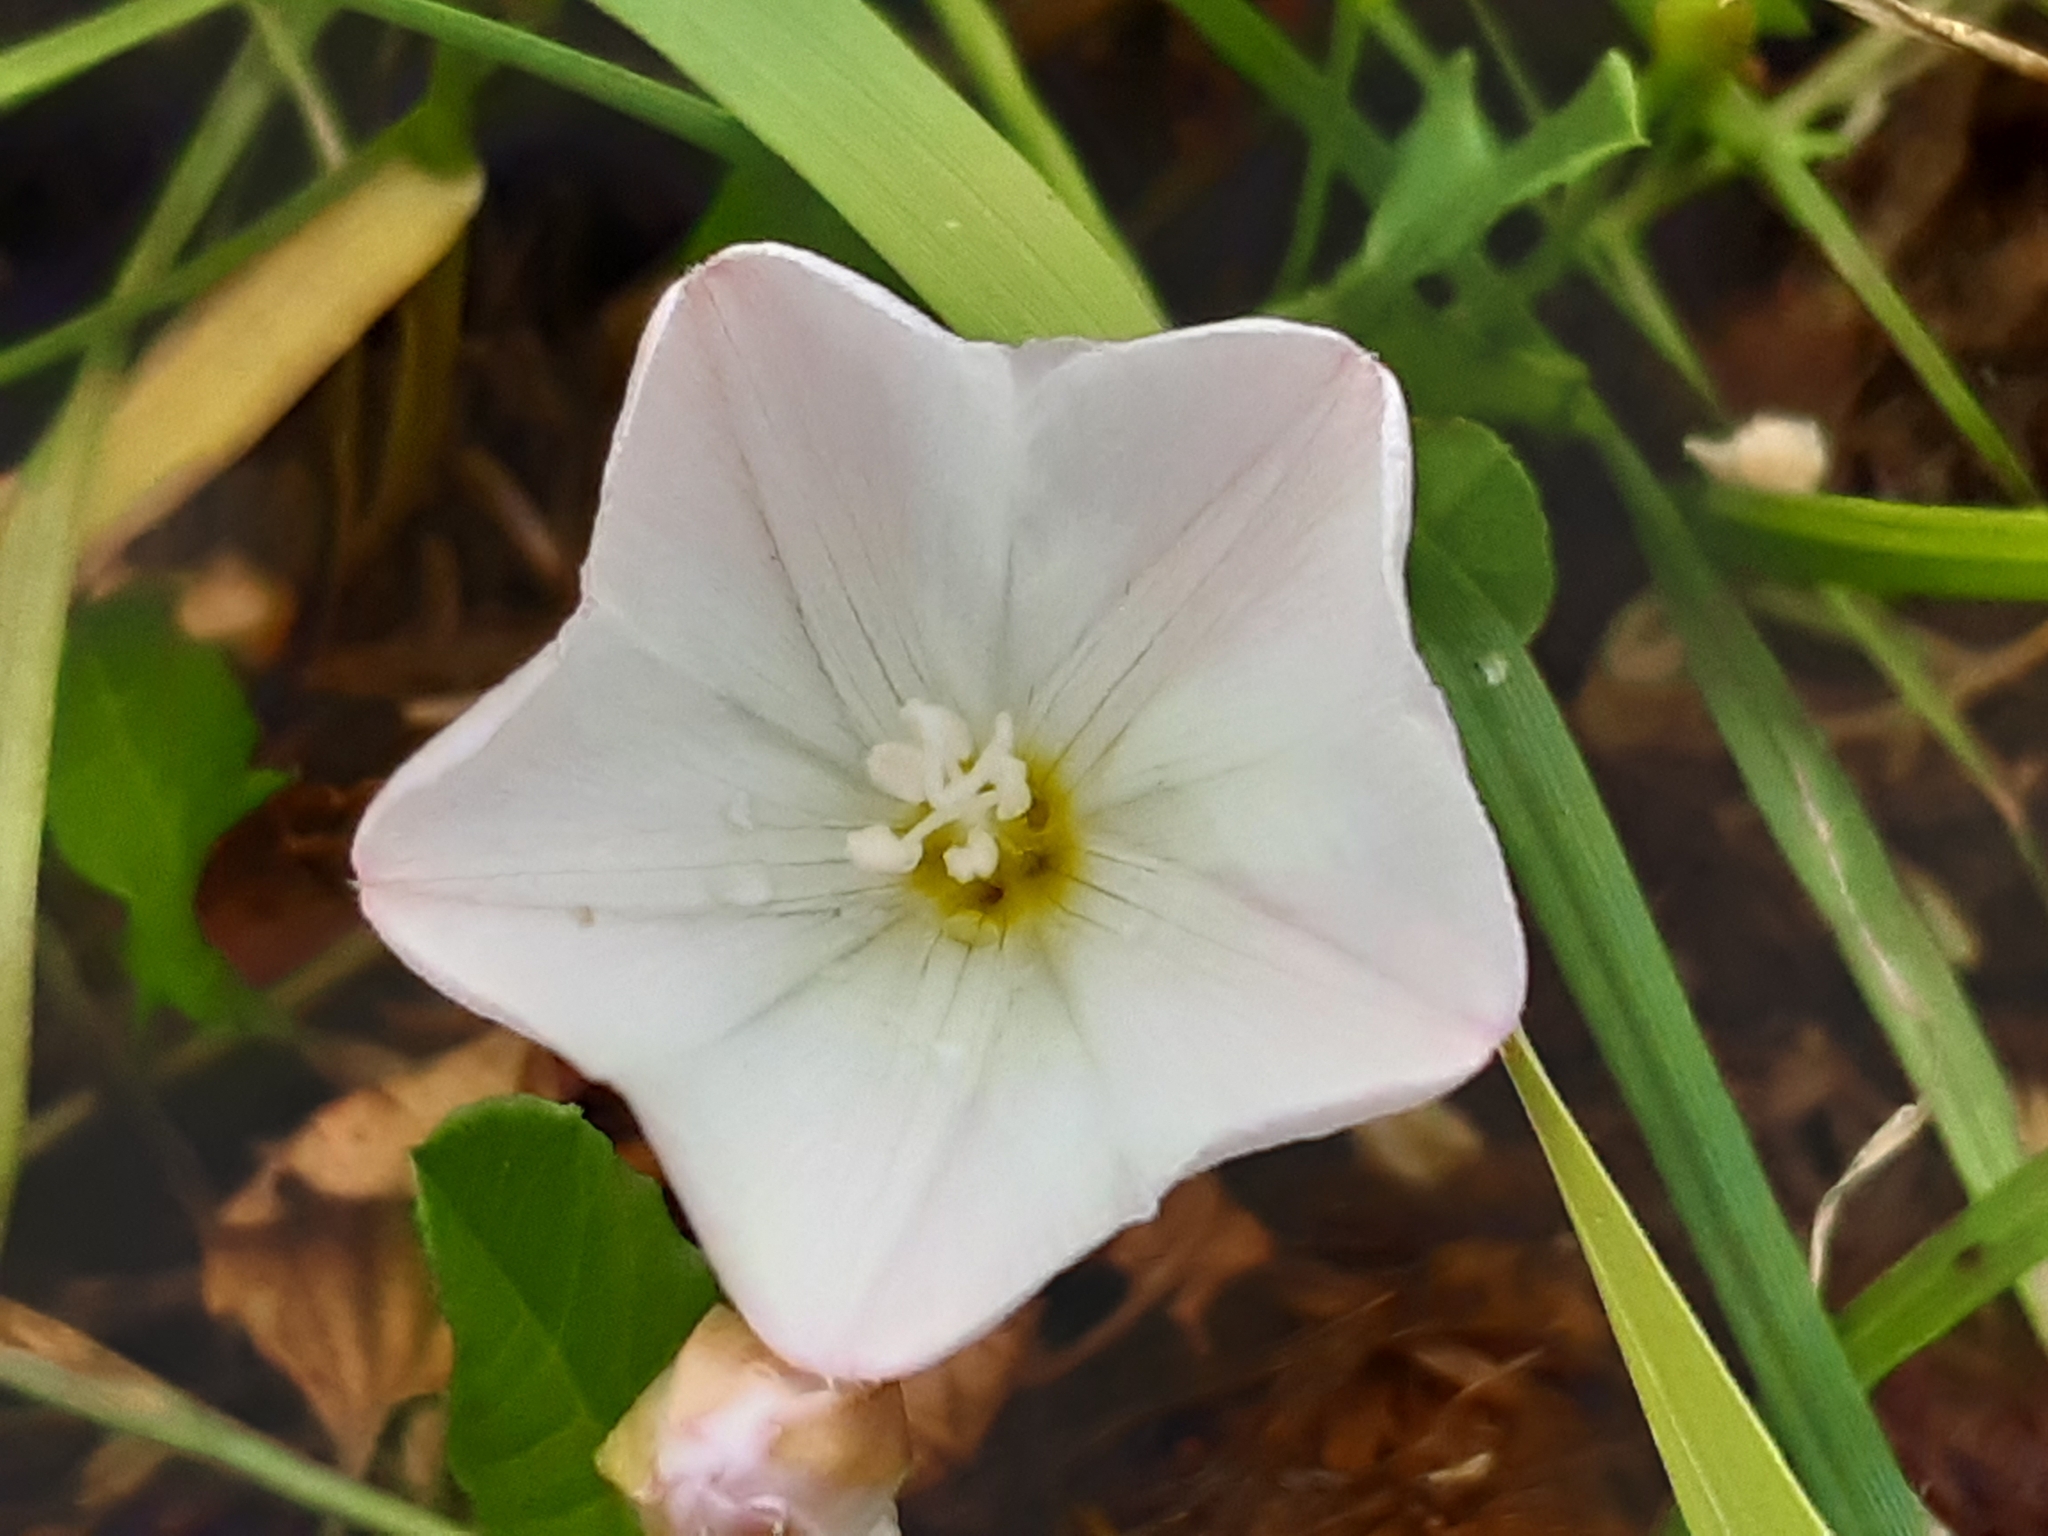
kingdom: Plantae
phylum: Tracheophyta
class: Magnoliopsida
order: Solanales
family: Convolvulaceae
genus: Convolvulus
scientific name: Convolvulus arvensis
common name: Field bindweed
